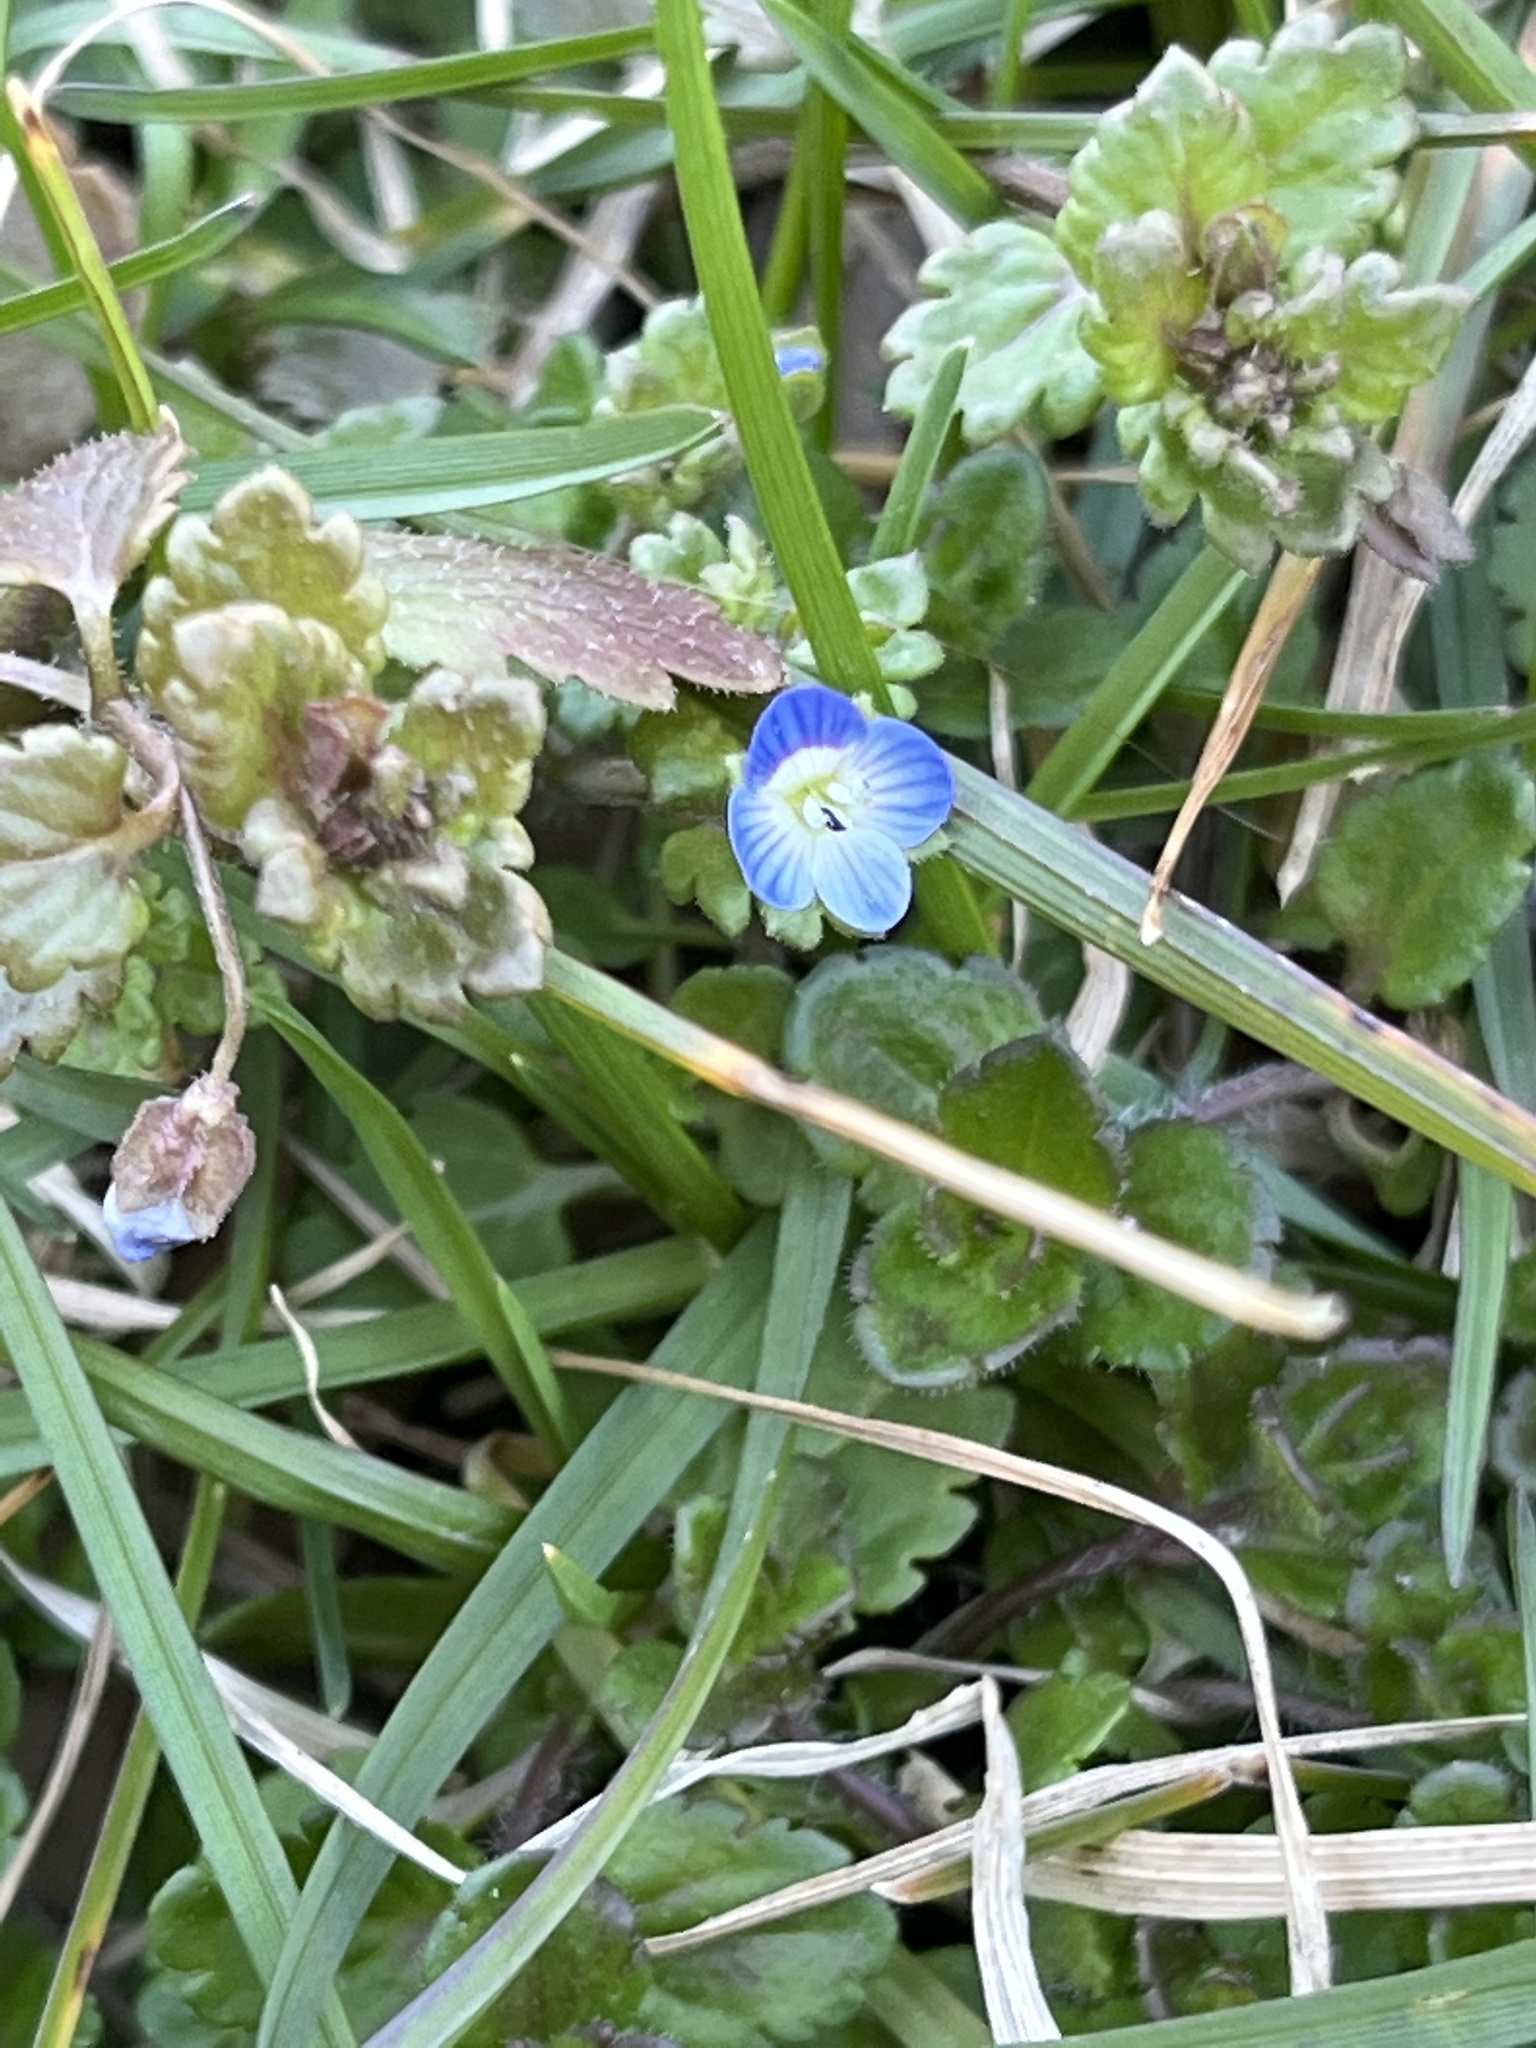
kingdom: Plantae
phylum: Tracheophyta
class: Magnoliopsida
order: Lamiales
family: Plantaginaceae
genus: Veronica
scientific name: Veronica polita
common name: Grey field-speedwell
